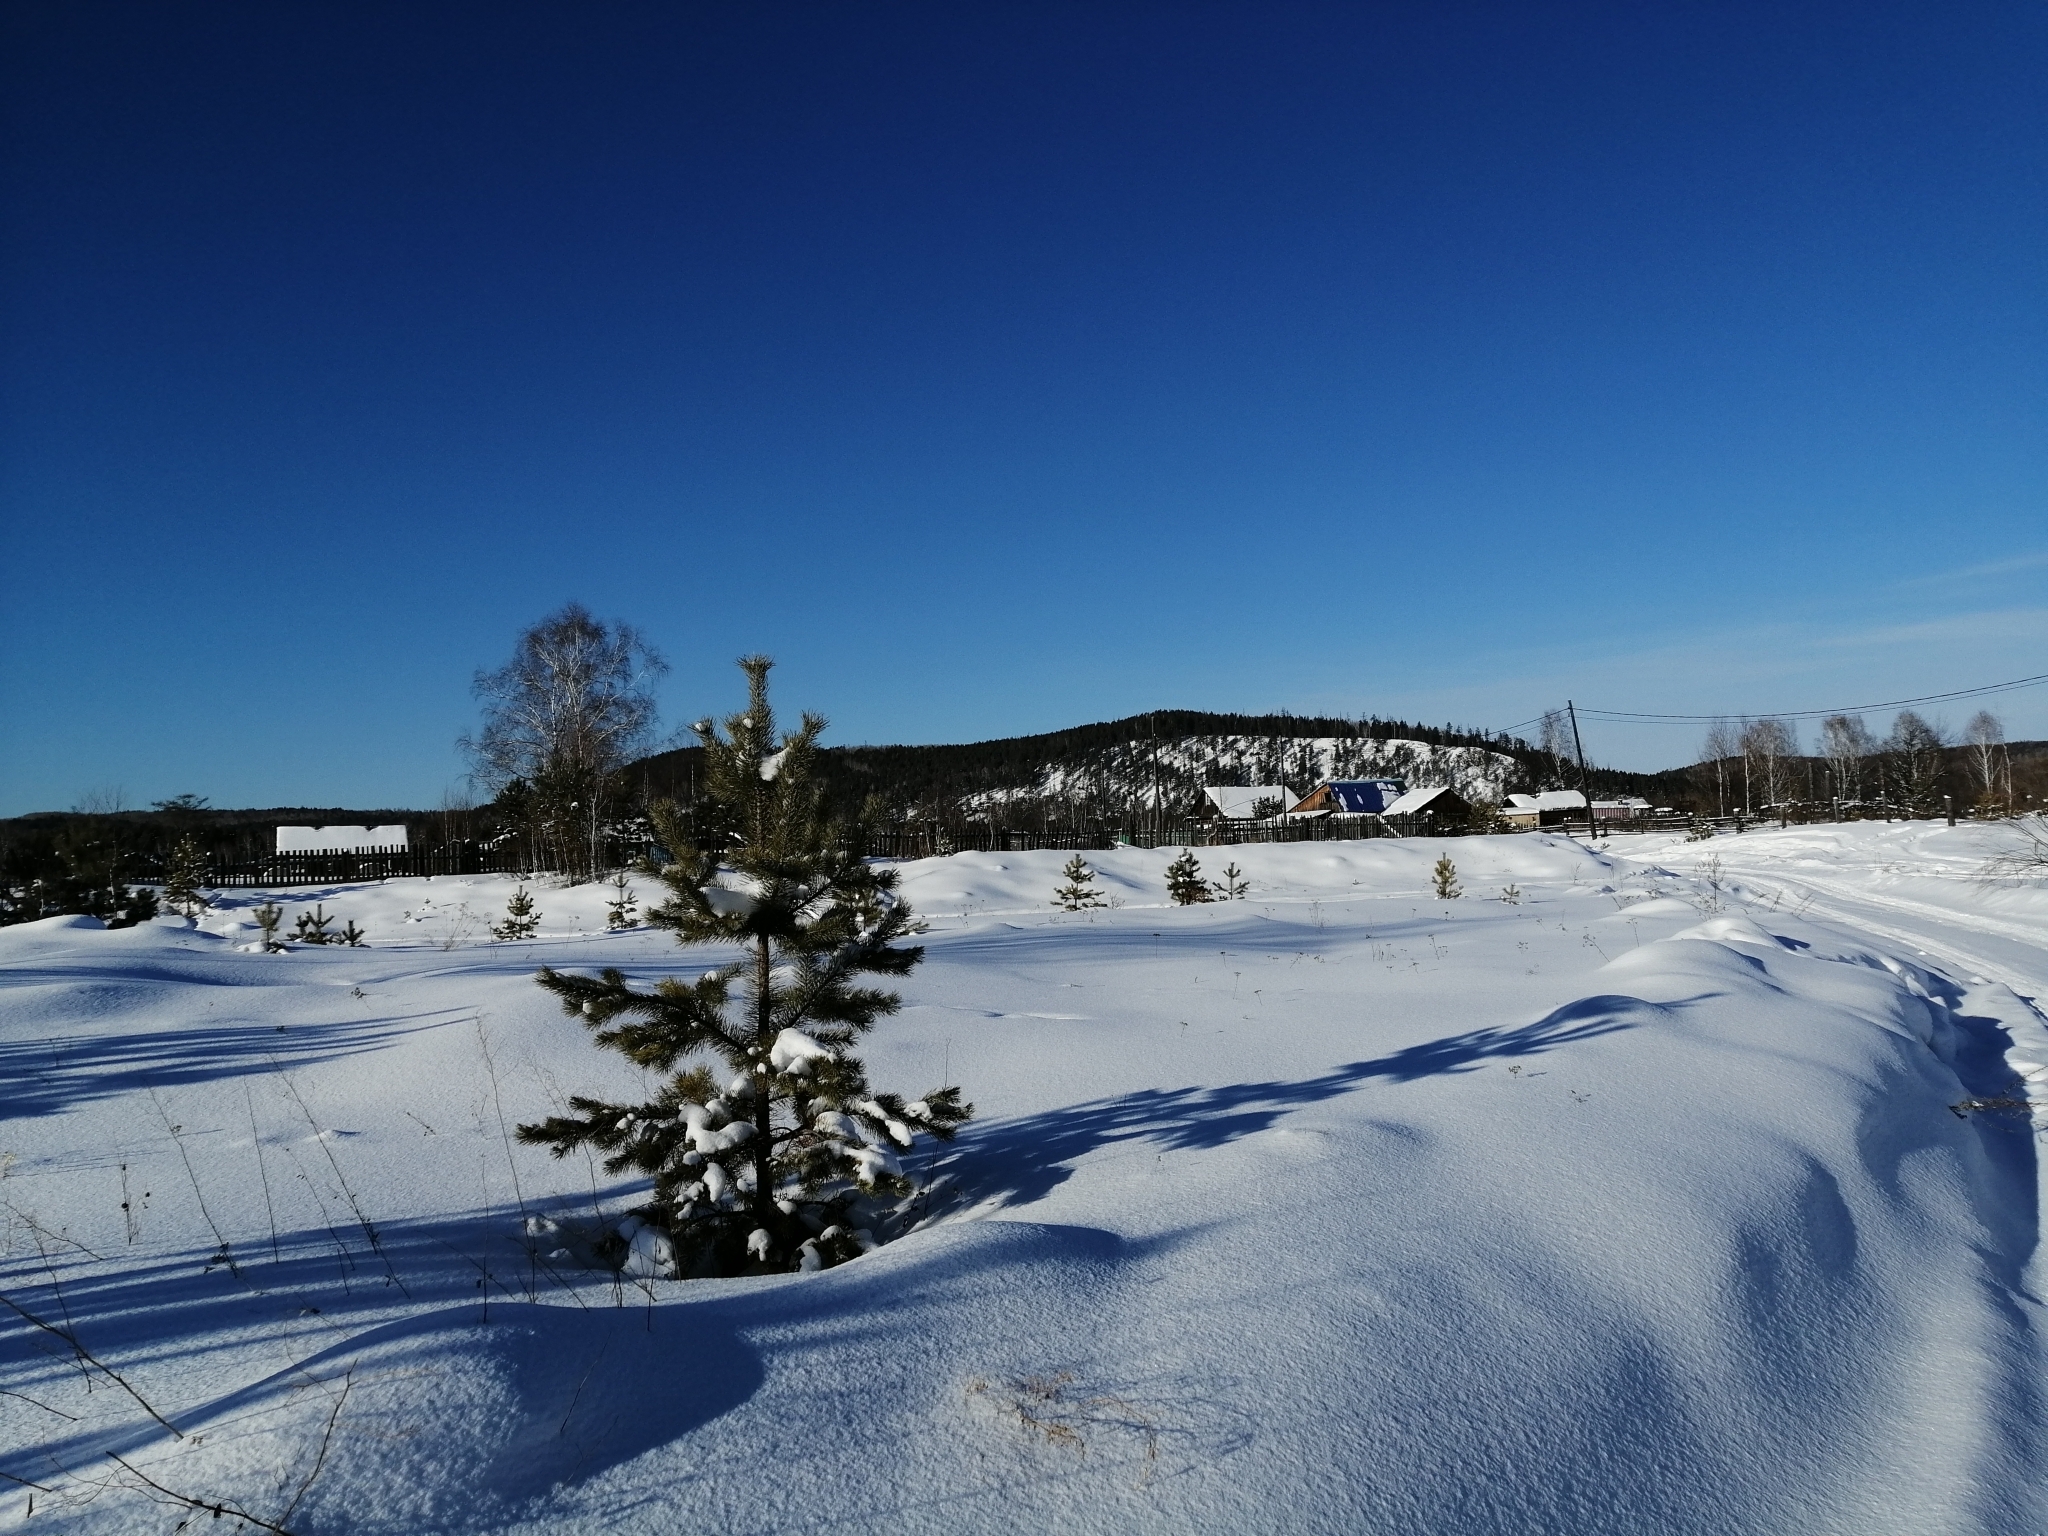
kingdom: Plantae
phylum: Tracheophyta
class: Pinopsida
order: Pinales
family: Pinaceae
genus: Pinus
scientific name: Pinus sylvestris
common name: Scots pine
